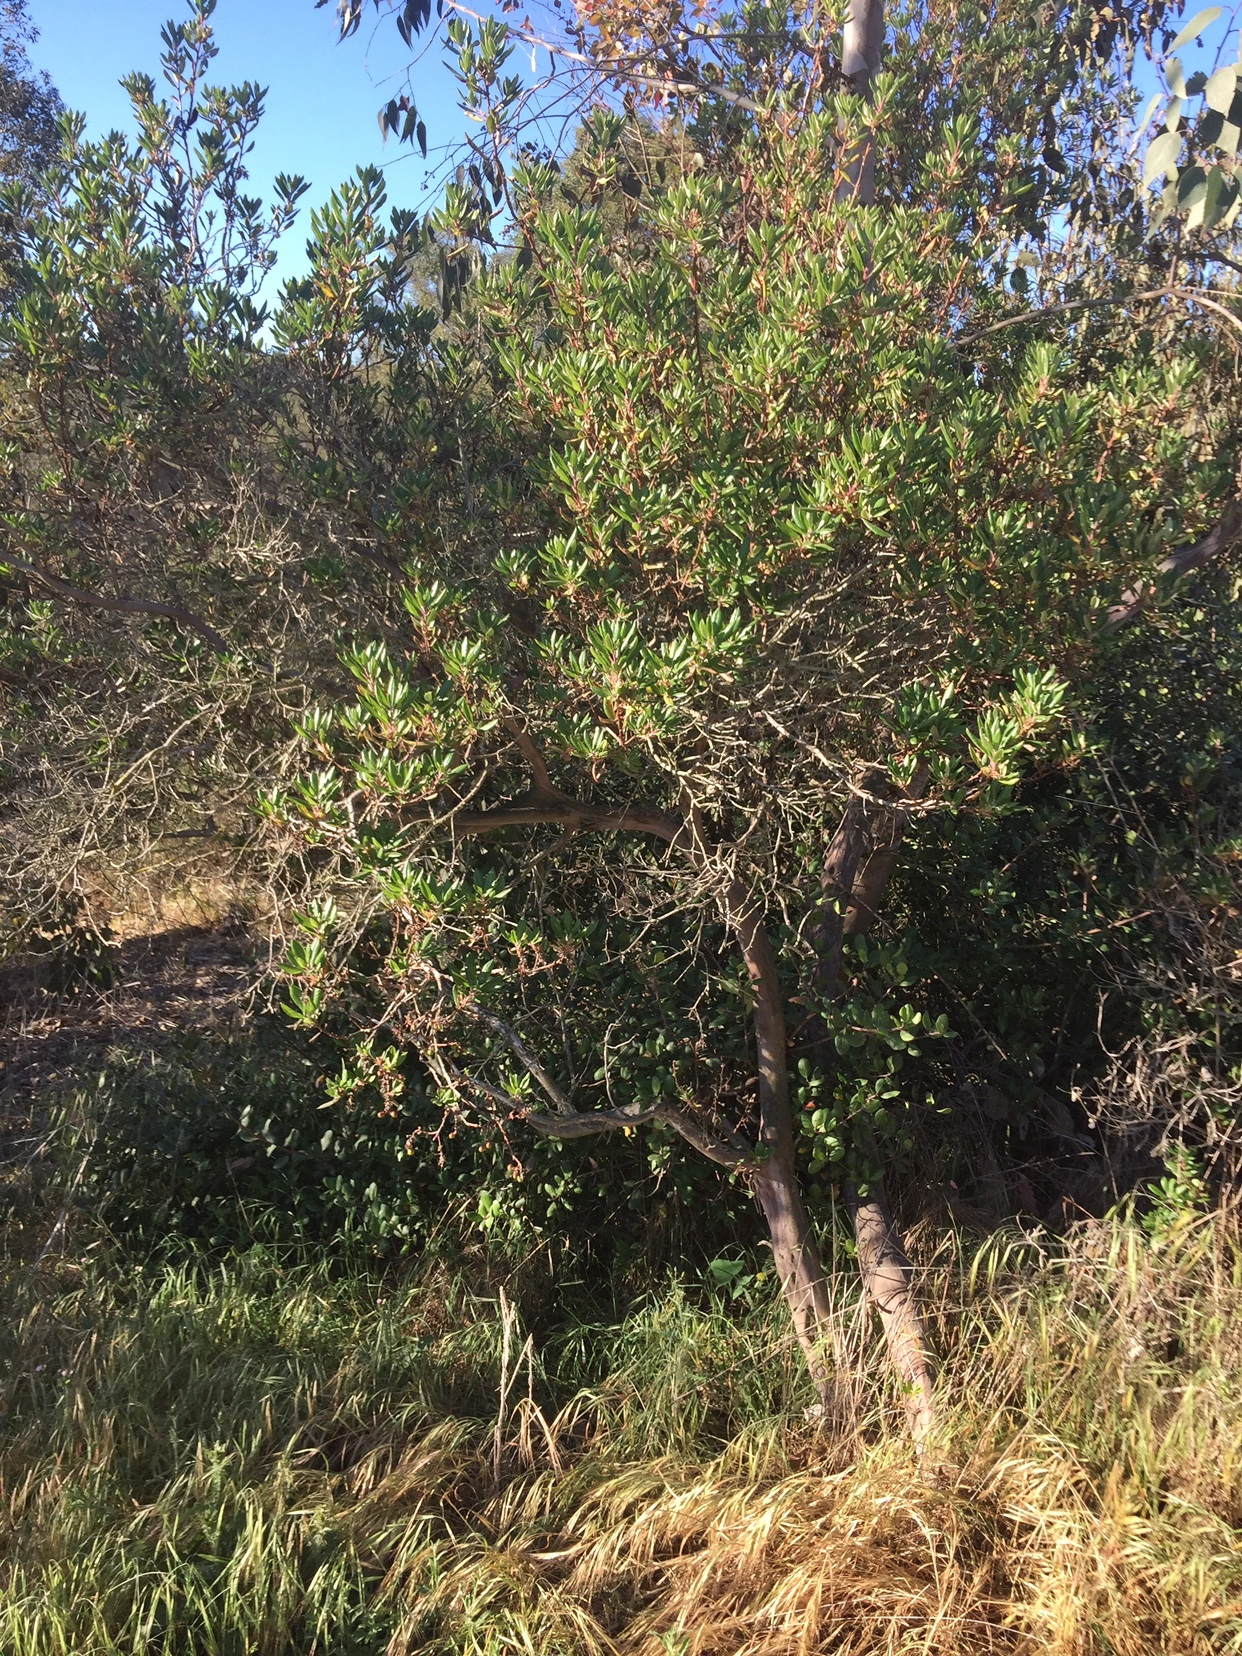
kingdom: Plantae
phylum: Tracheophyta
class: Magnoliopsida
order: Ericales
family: Ericaceae
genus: Arctostaphylos
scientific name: Arctostaphylos bicolor
